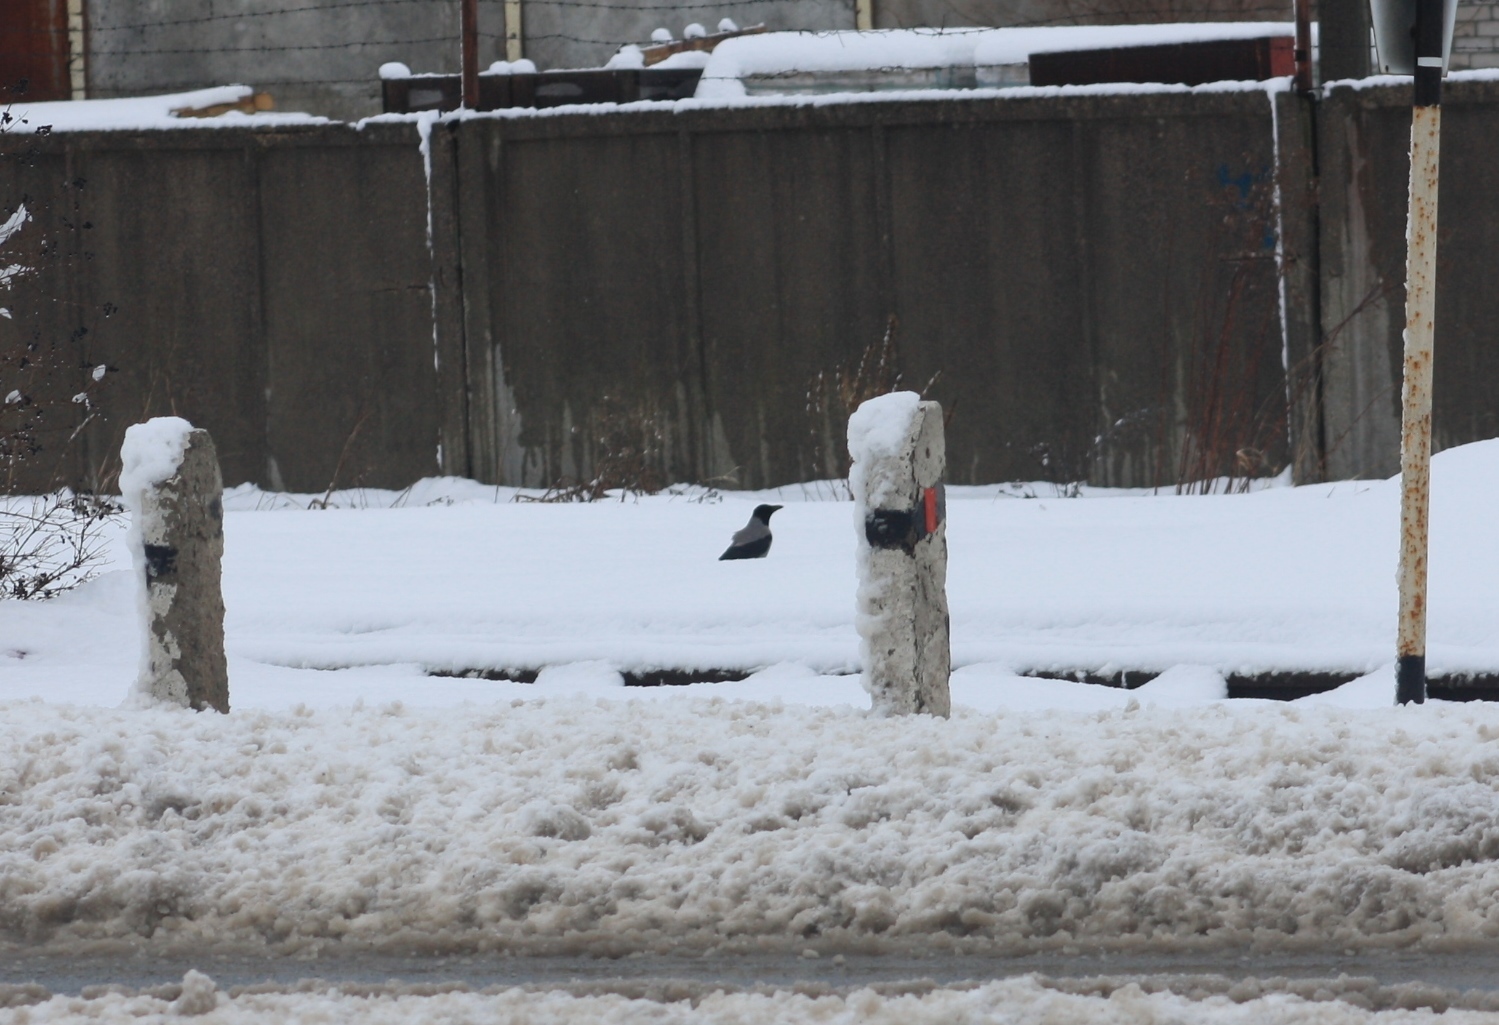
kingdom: Animalia
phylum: Chordata
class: Aves
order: Passeriformes
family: Corvidae
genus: Corvus
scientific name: Corvus cornix
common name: Hooded crow
